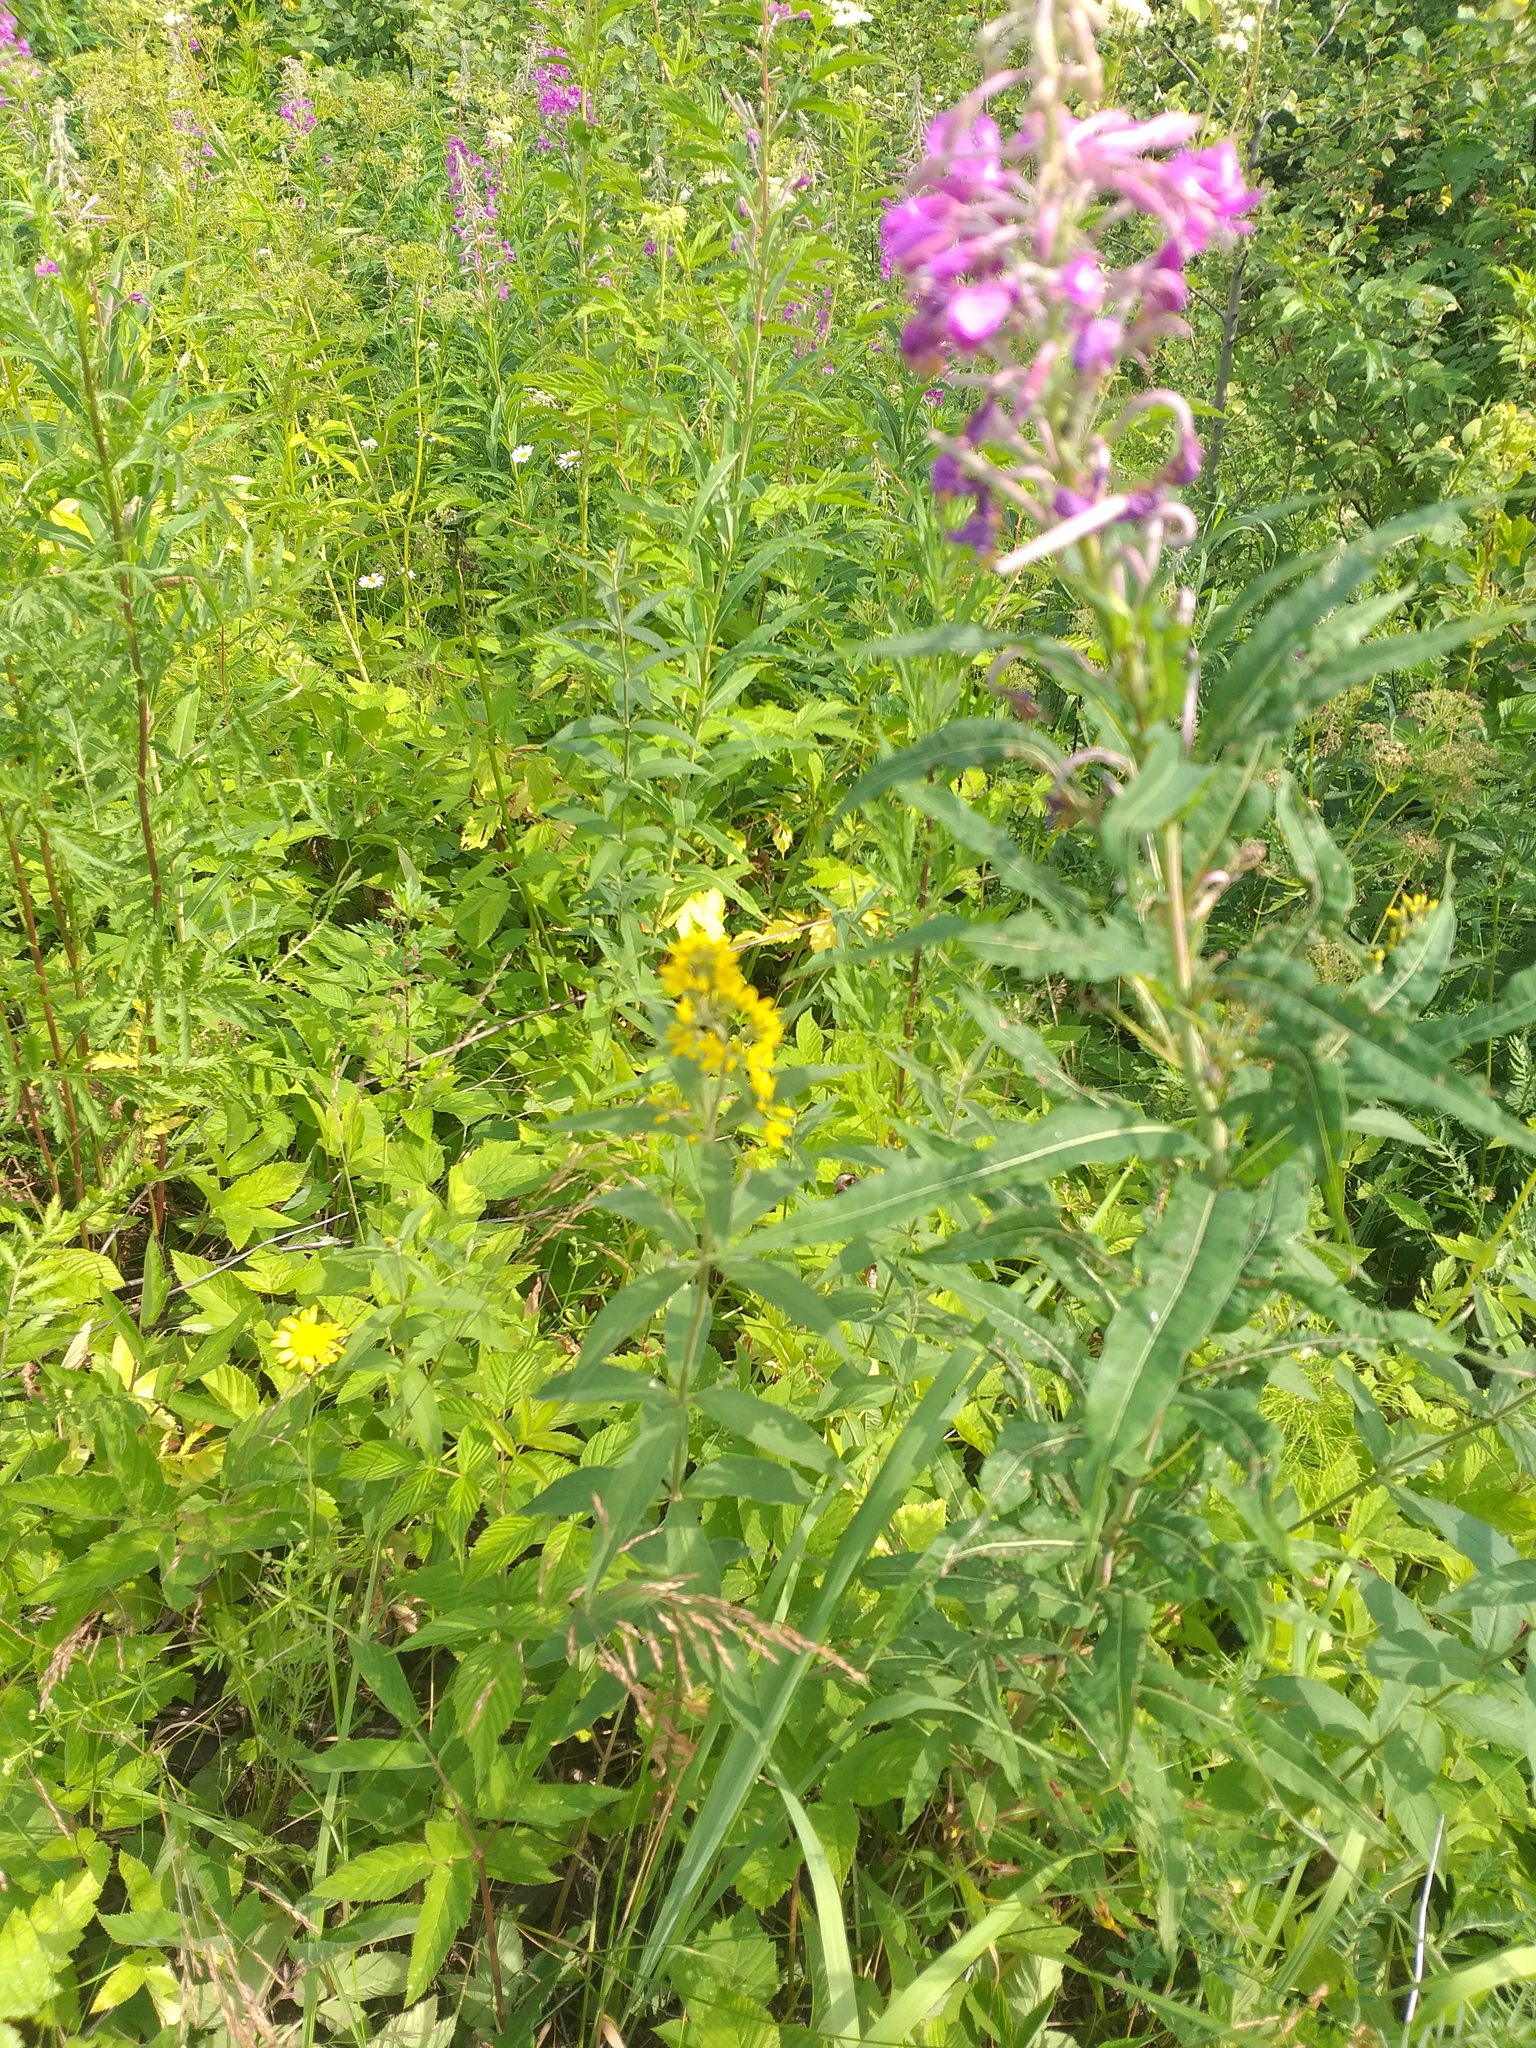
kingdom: Plantae
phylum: Tracheophyta
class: Magnoliopsida
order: Ericales
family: Primulaceae
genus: Lysimachia
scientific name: Lysimachia vulgaris
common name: Yellow loosestrife
